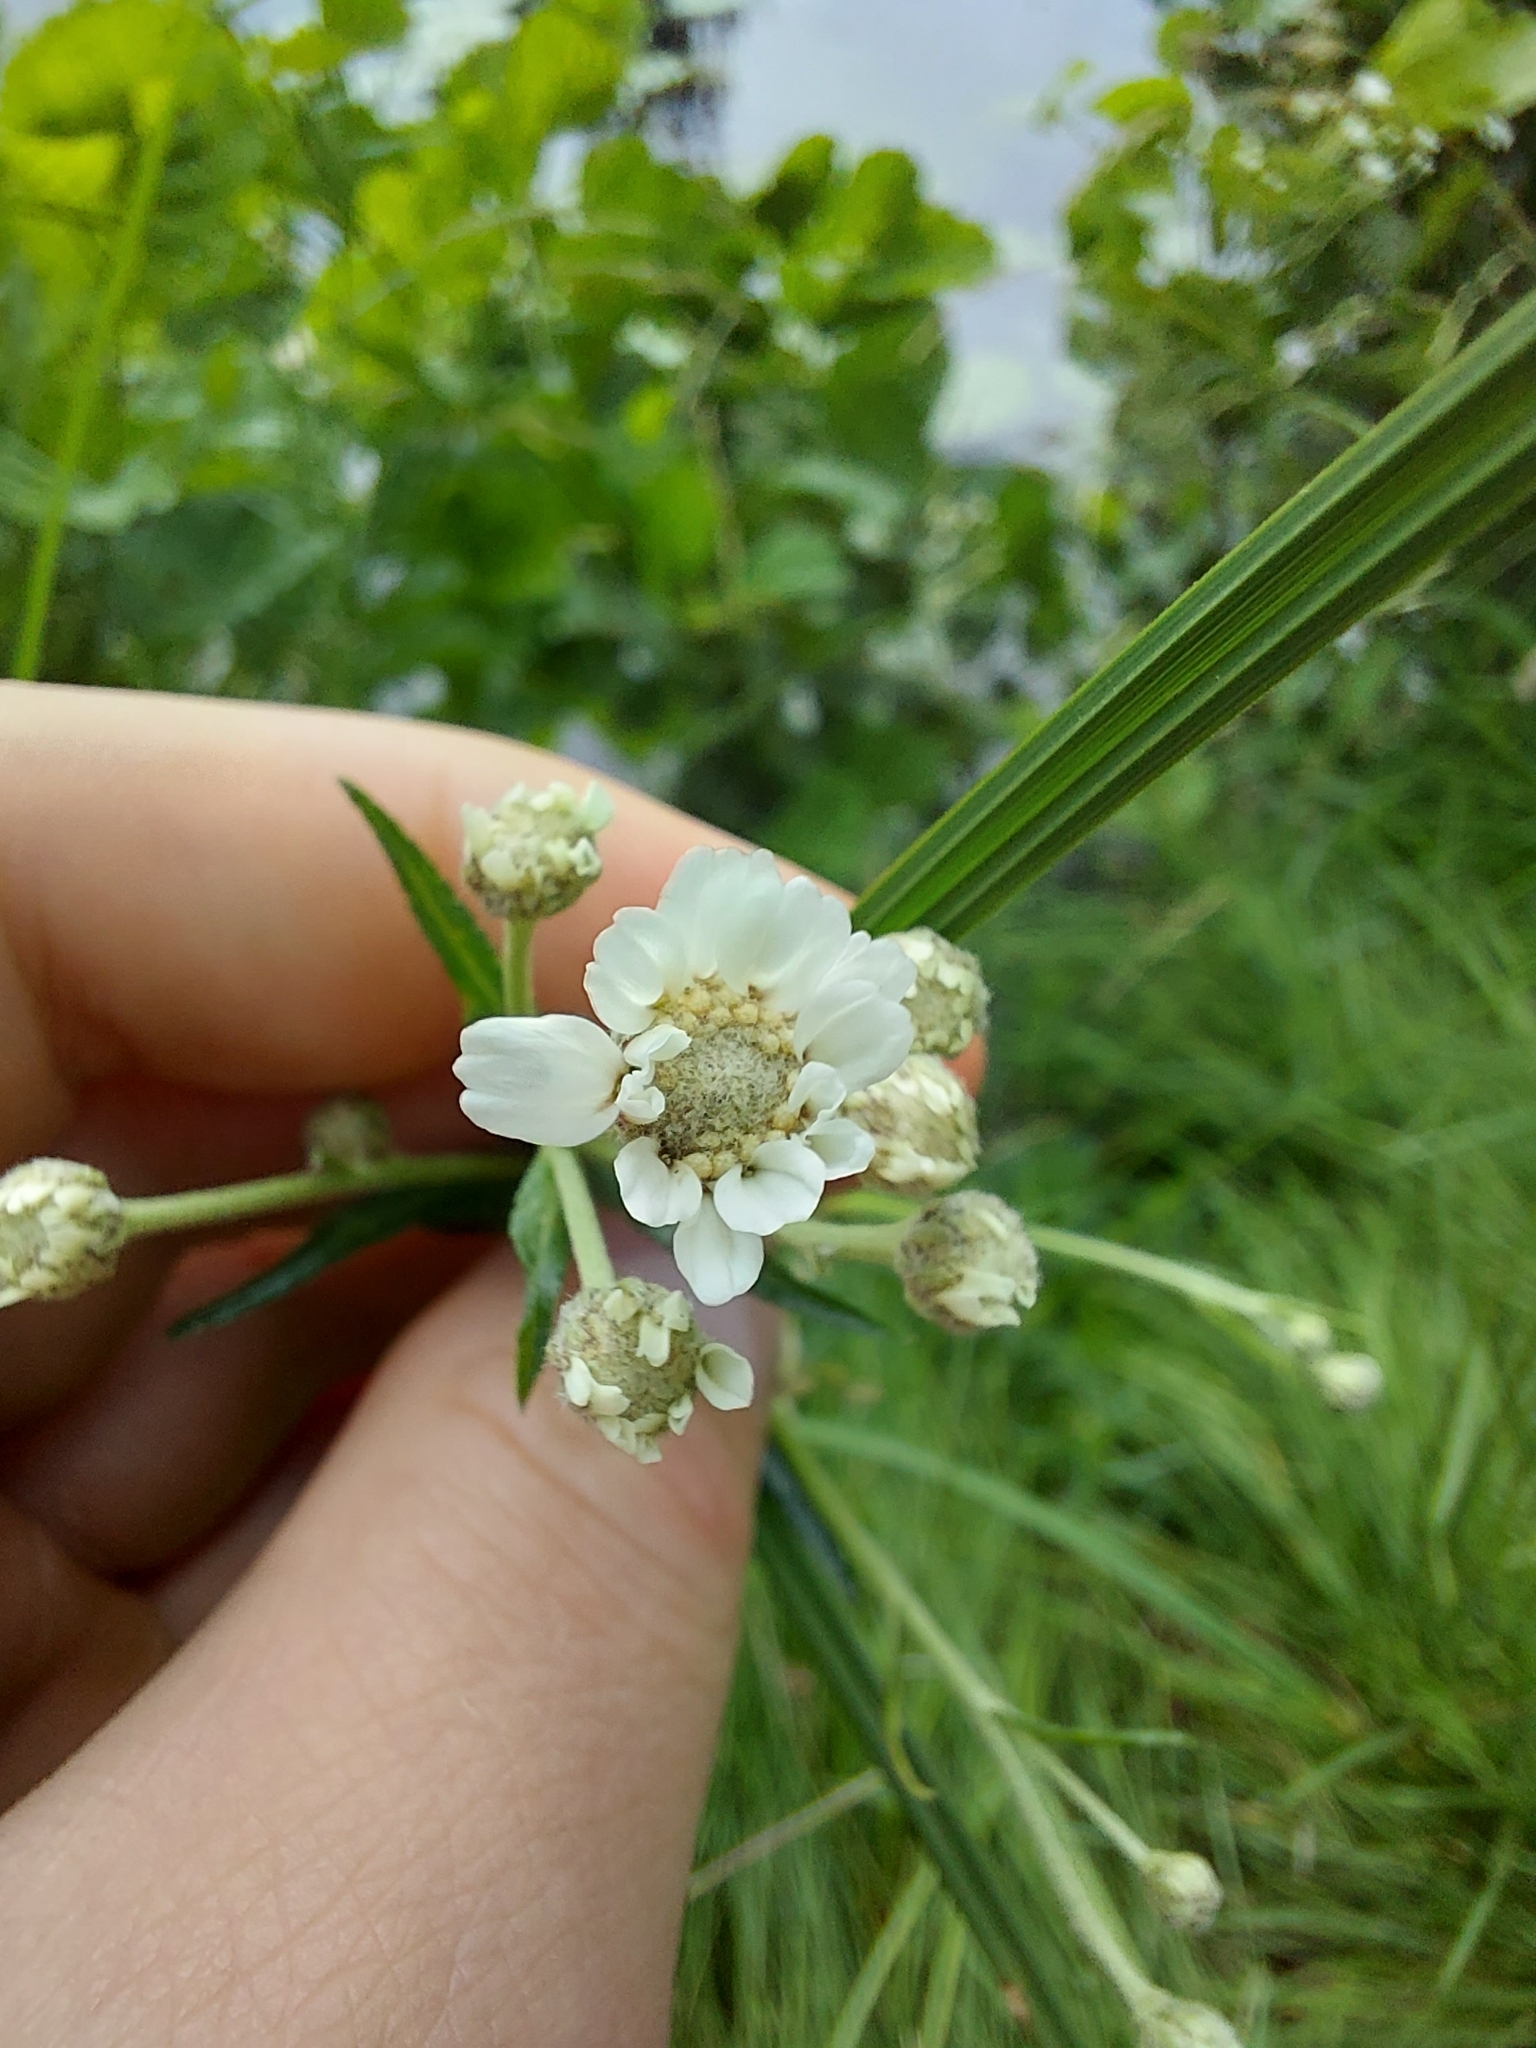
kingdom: Plantae
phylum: Tracheophyta
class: Magnoliopsida
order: Asterales
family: Asteraceae
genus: Achillea
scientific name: Achillea ptarmica
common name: Sneezeweed
